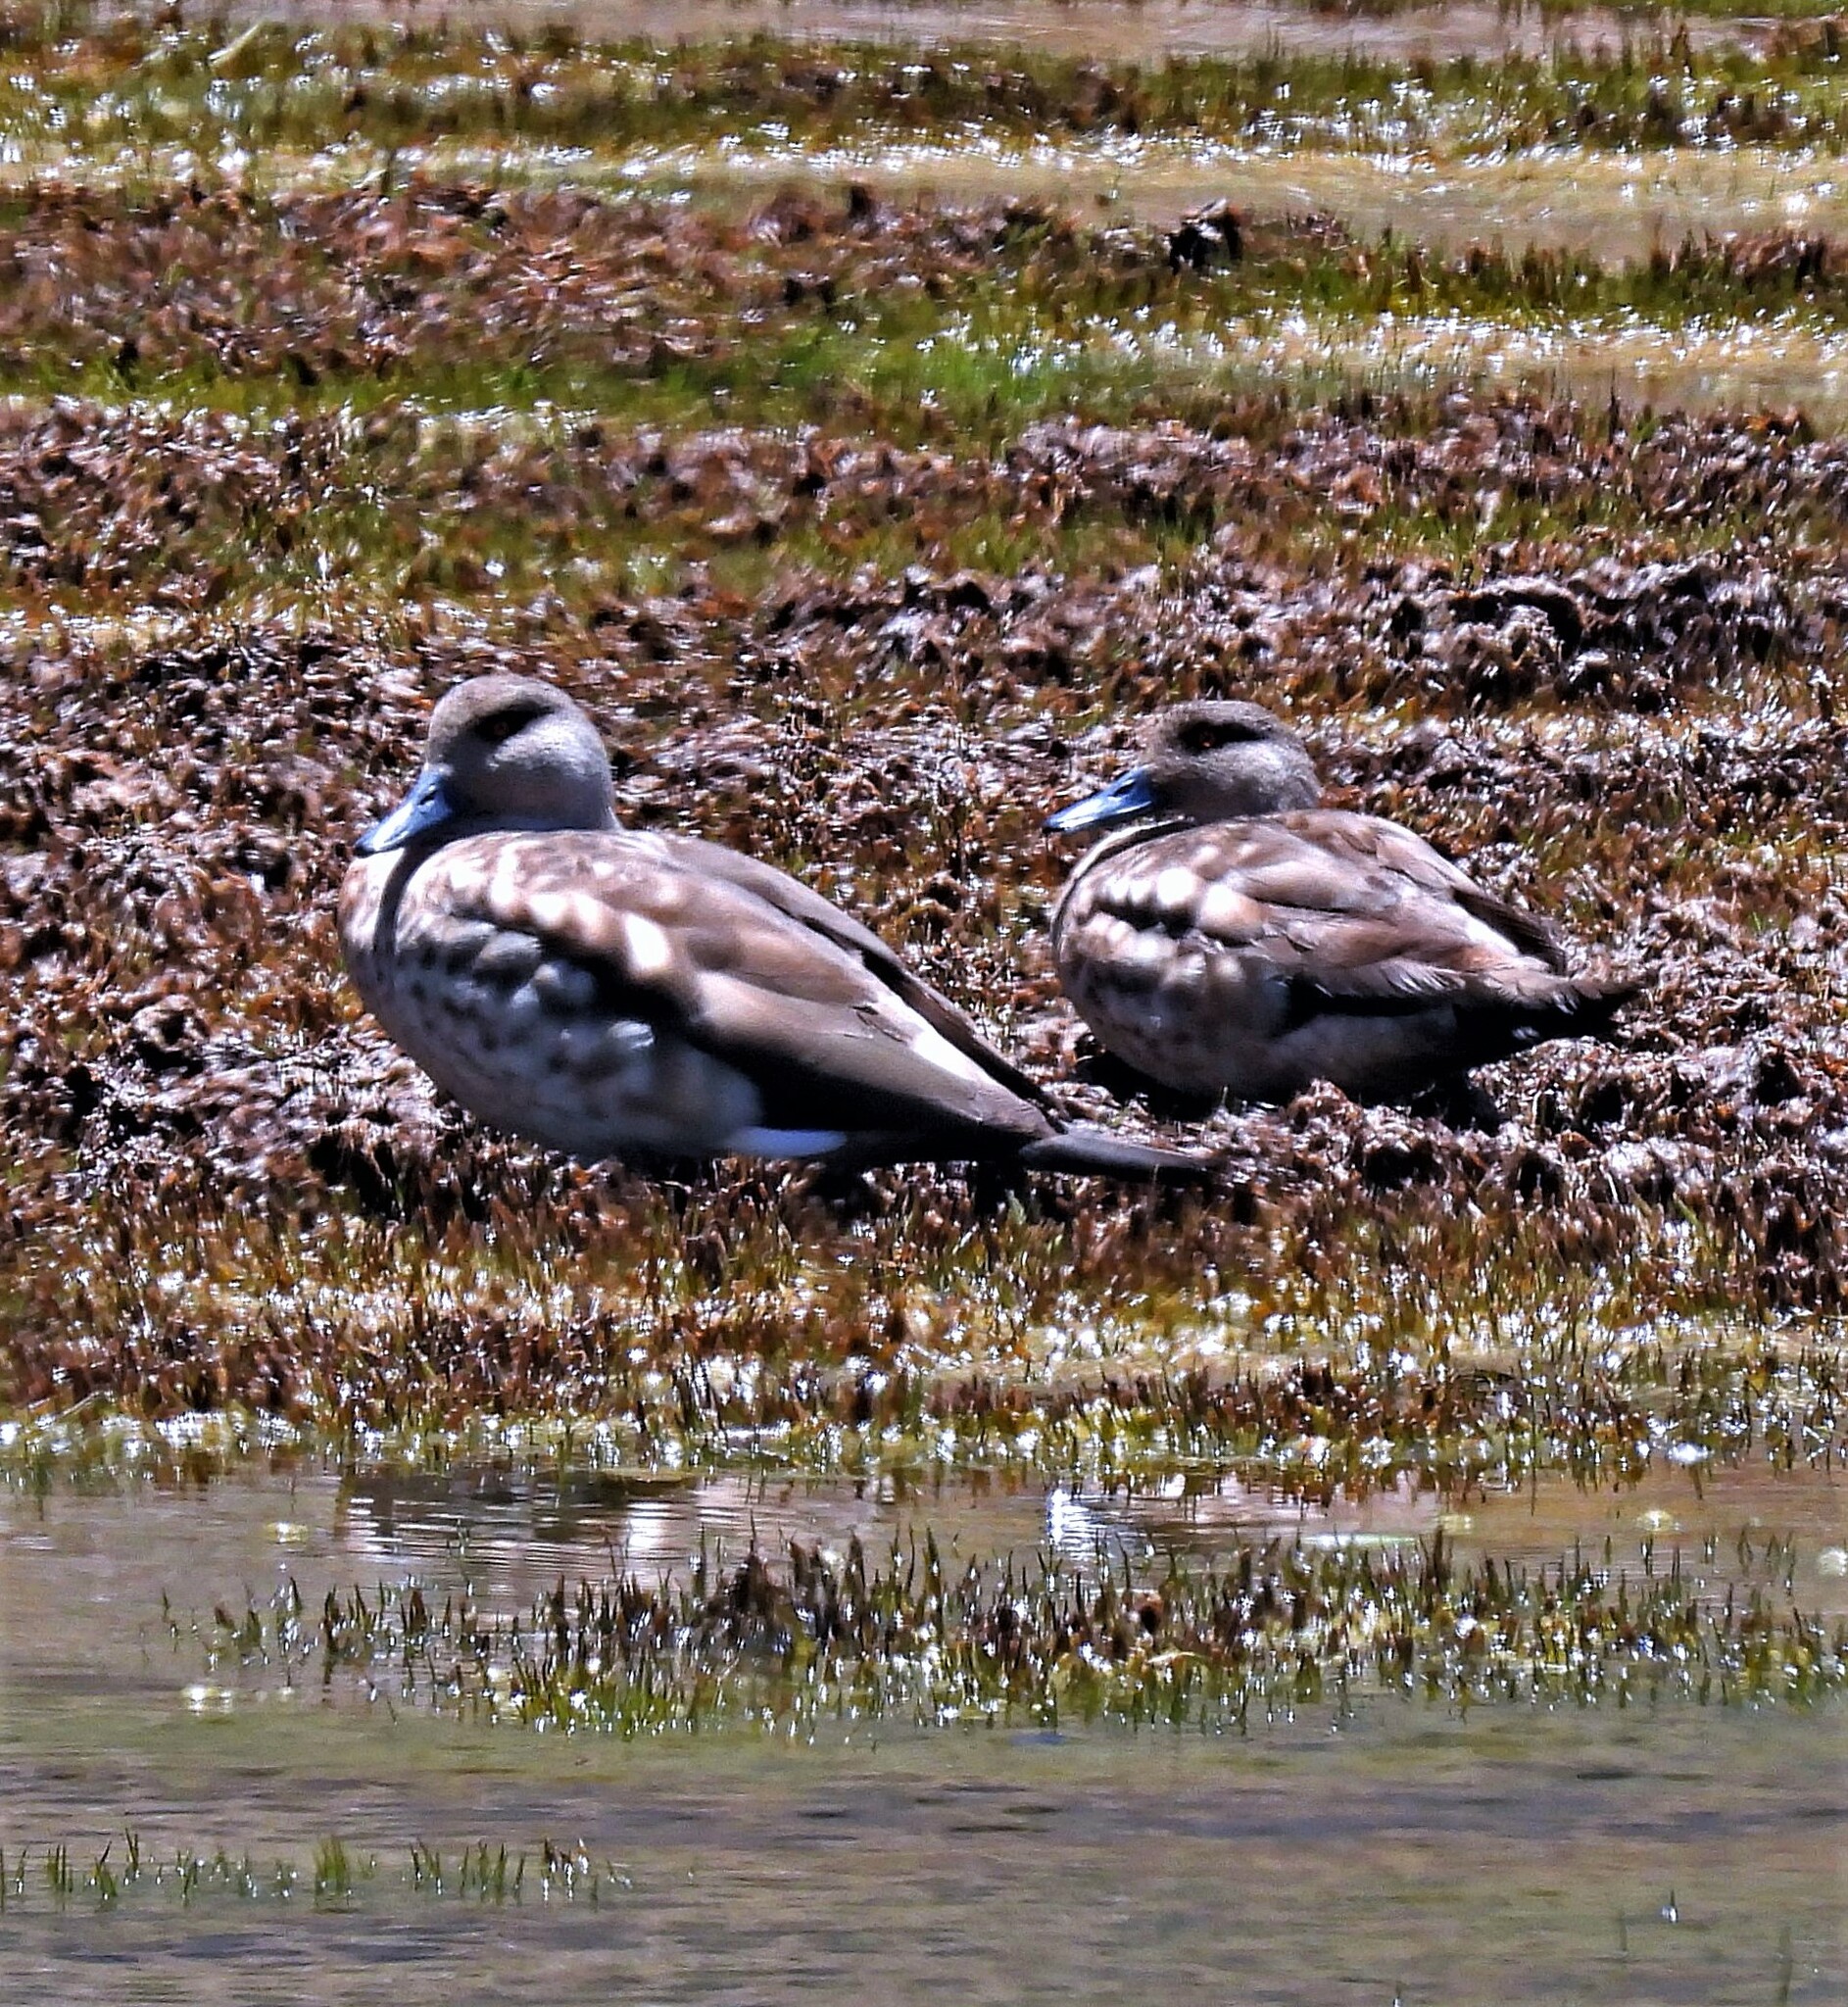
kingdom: Animalia
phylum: Chordata
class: Aves
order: Anseriformes
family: Anatidae
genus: Lophonetta
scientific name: Lophonetta specularioides
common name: Crested duck
